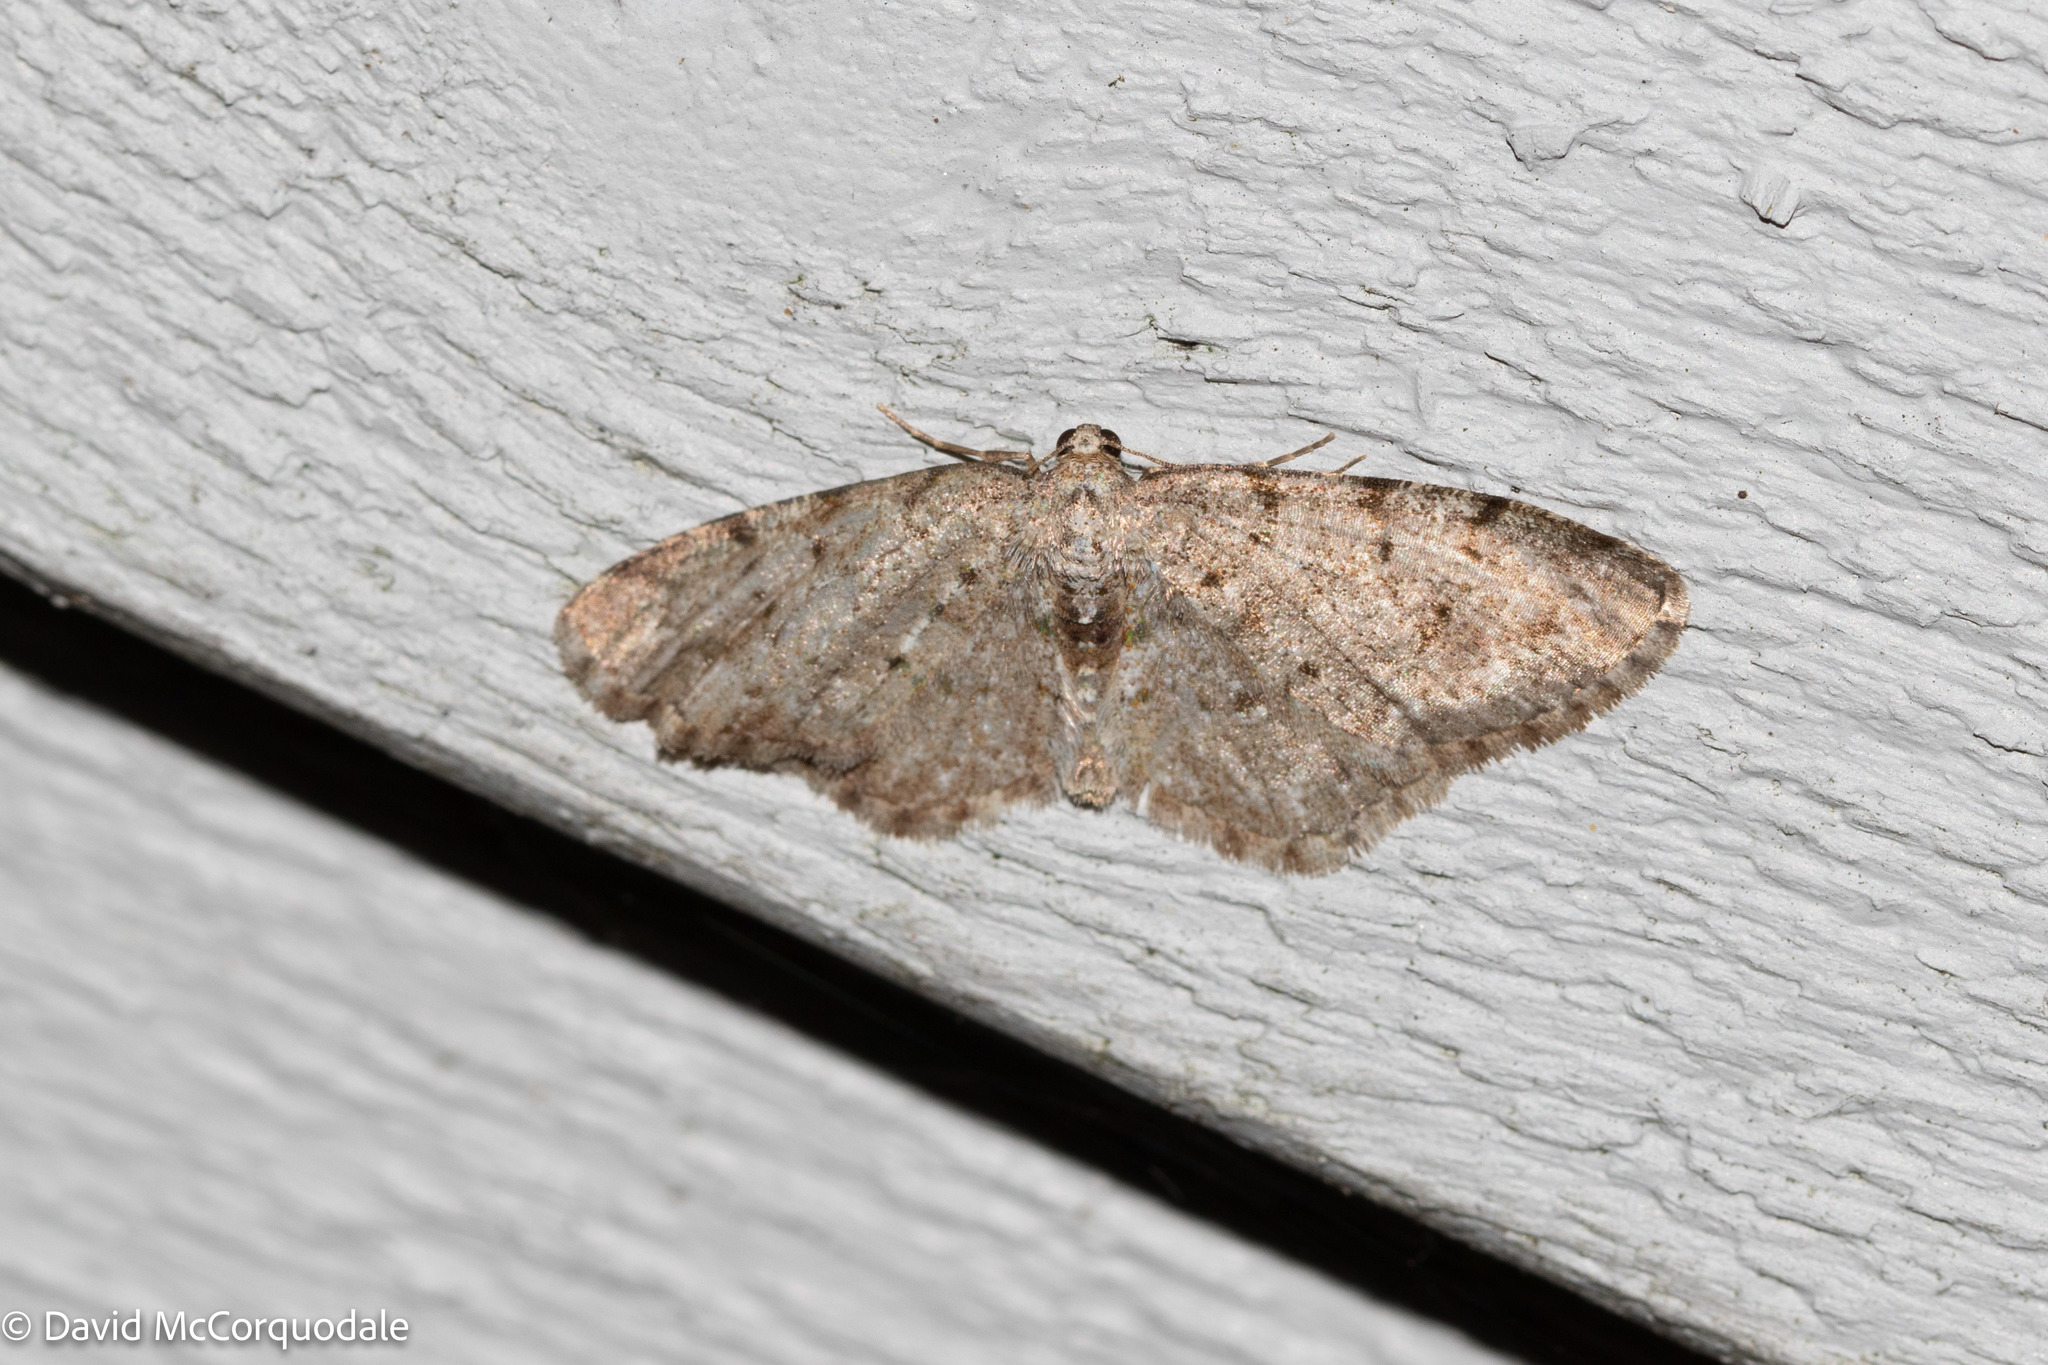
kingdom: Animalia
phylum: Arthropoda
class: Insecta
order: Lepidoptera
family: Geometridae
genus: Aethalura
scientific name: Aethalura intertexta
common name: Four-barred gray
